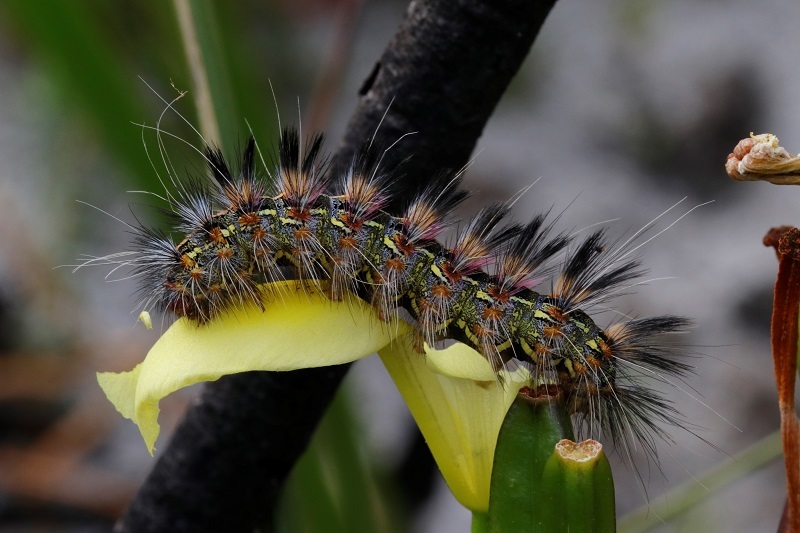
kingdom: Animalia
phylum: Arthropoda
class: Insecta
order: Lepidoptera
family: Erebidae
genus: Paralacydes
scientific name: Paralacydes vocula
